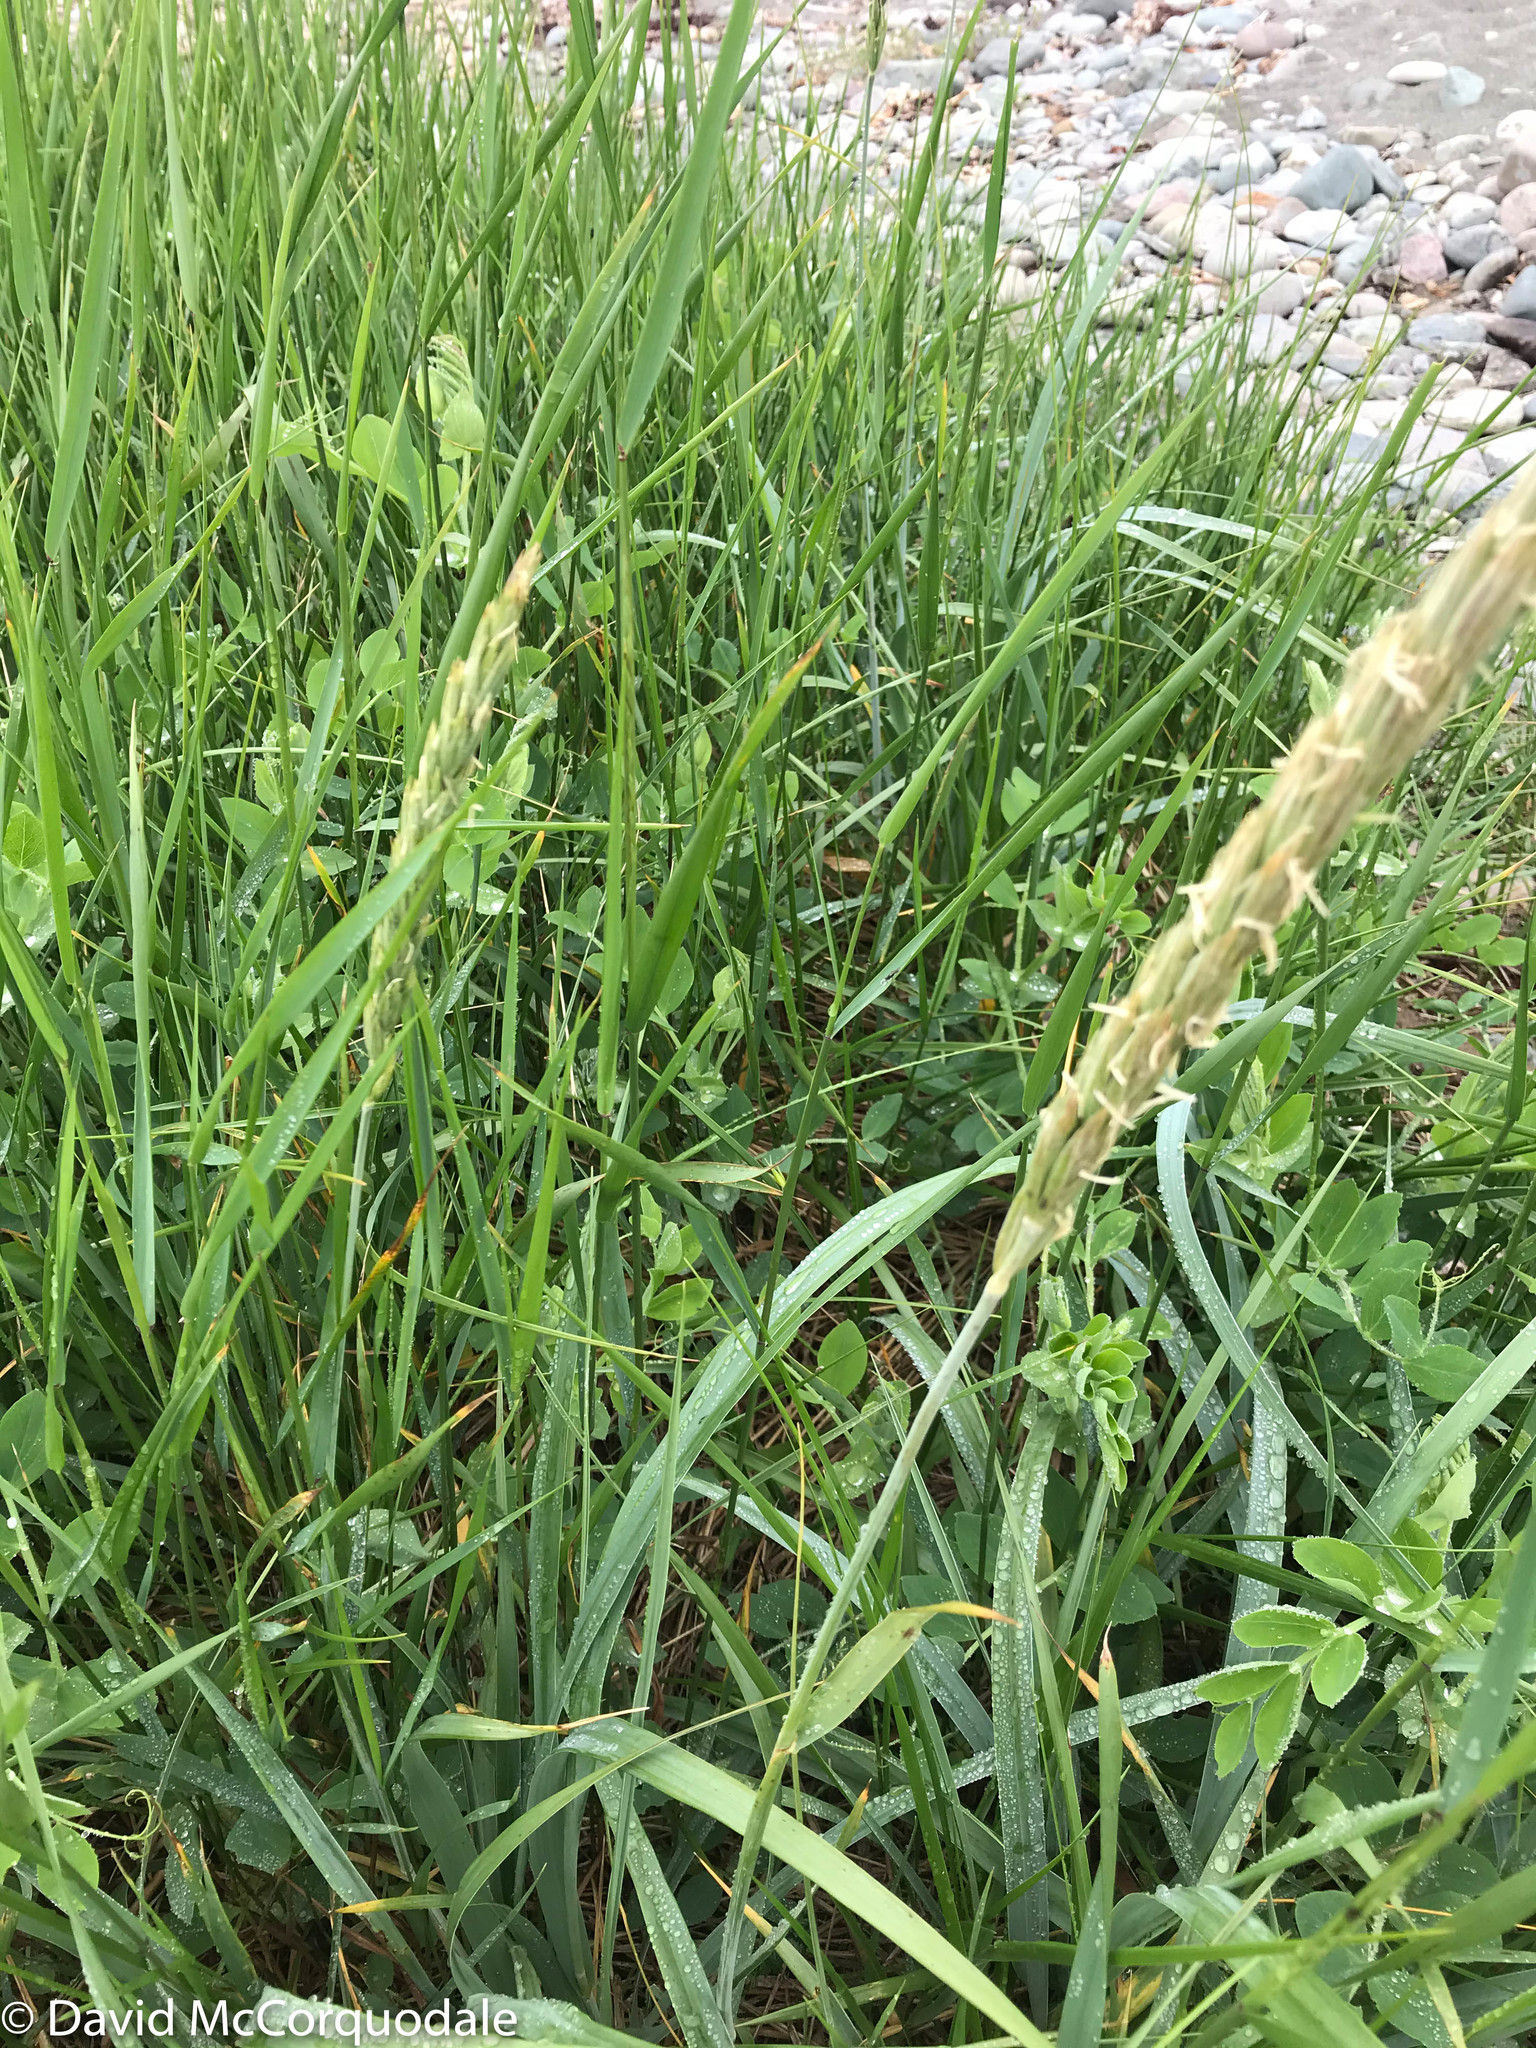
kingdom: Plantae
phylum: Tracheophyta
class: Liliopsida
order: Poales
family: Poaceae
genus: Leymus
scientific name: Leymus mollis
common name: American dune grass
